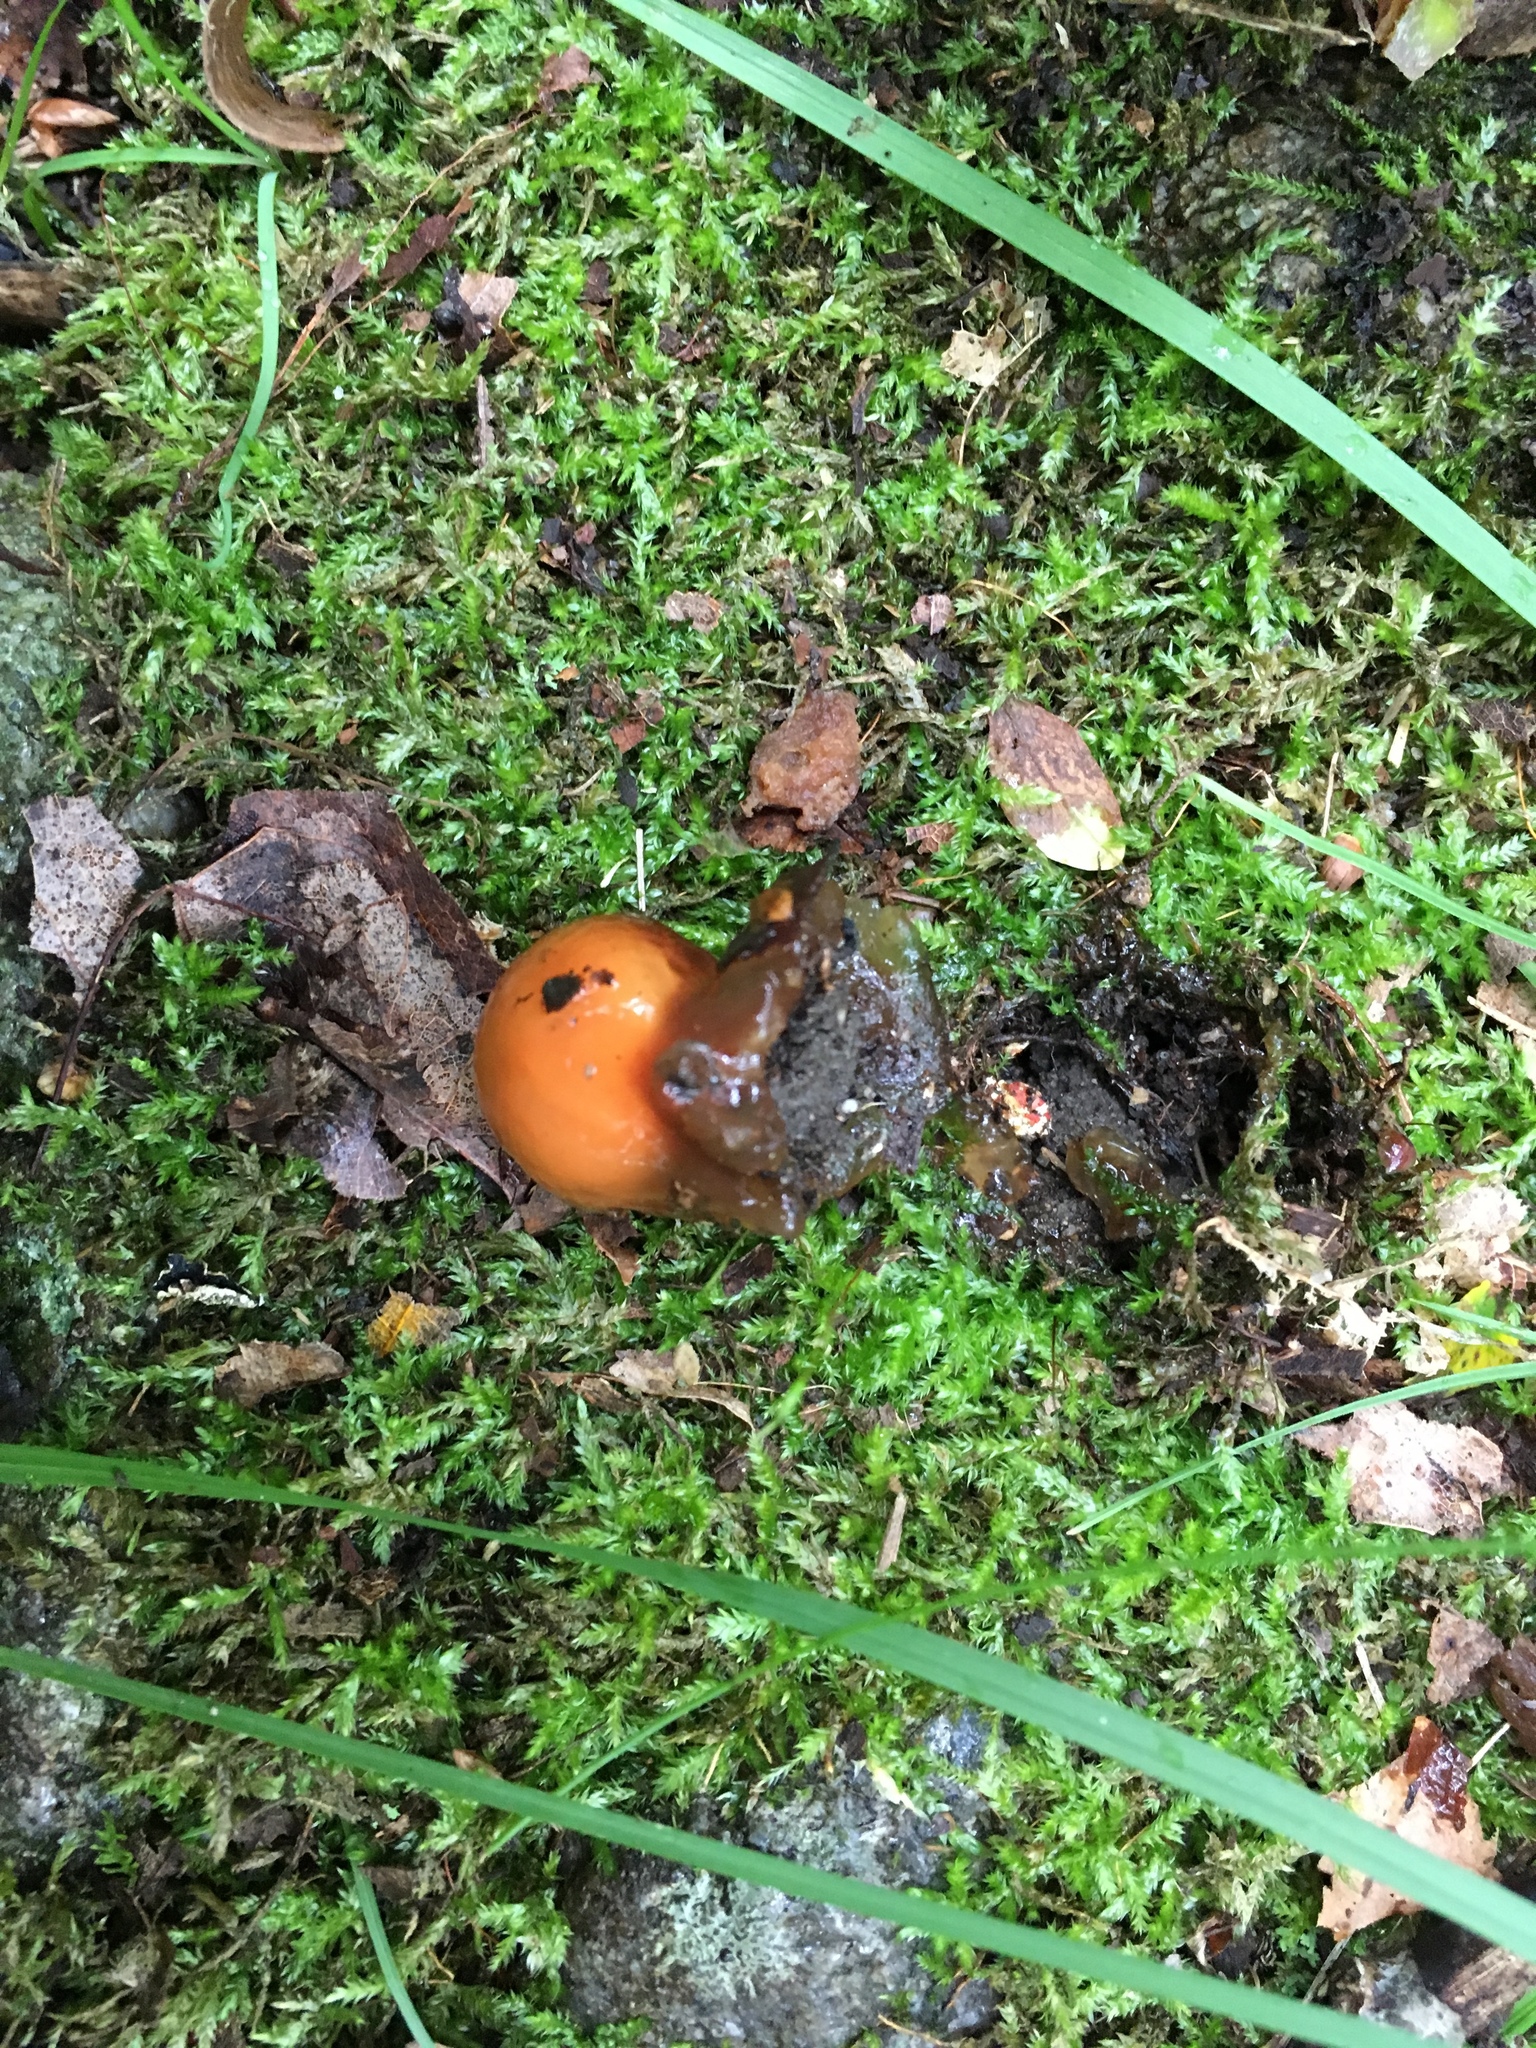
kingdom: Fungi
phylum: Basidiomycota
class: Agaricomycetes
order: Boletales
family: Calostomataceae
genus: Calostoma
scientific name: Calostoma cinnabarinum
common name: Stalked puffball-in-aspic
